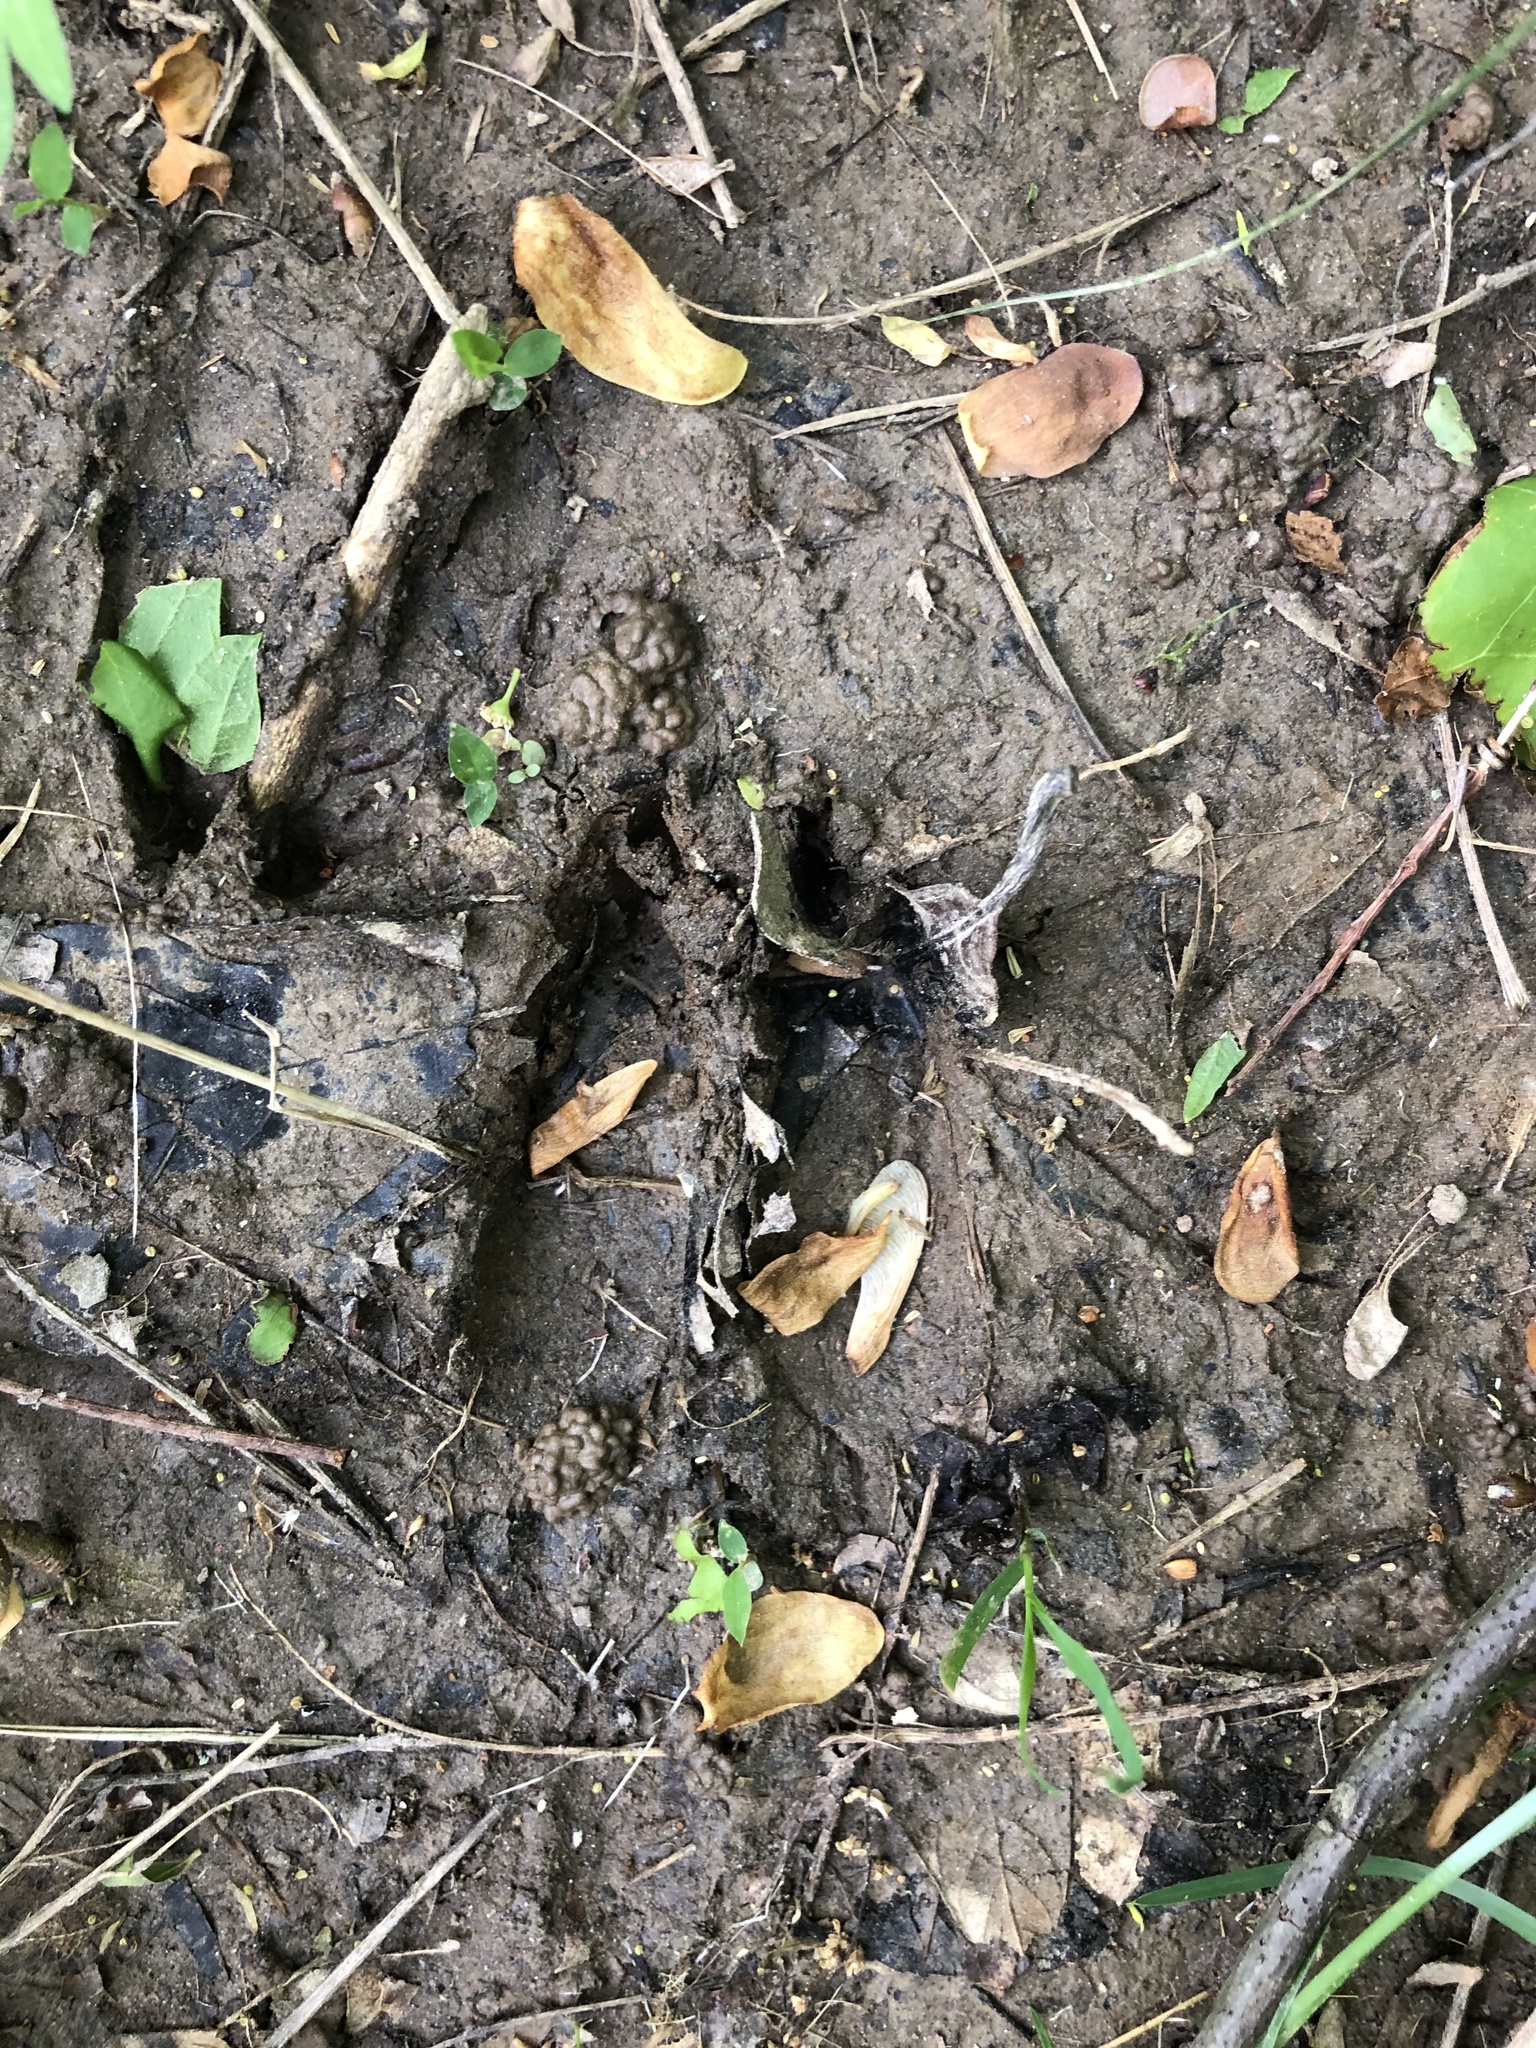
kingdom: Animalia
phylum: Chordata
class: Mammalia
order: Artiodactyla
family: Cervidae
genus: Odocoileus
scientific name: Odocoileus virginianus
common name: White-tailed deer
